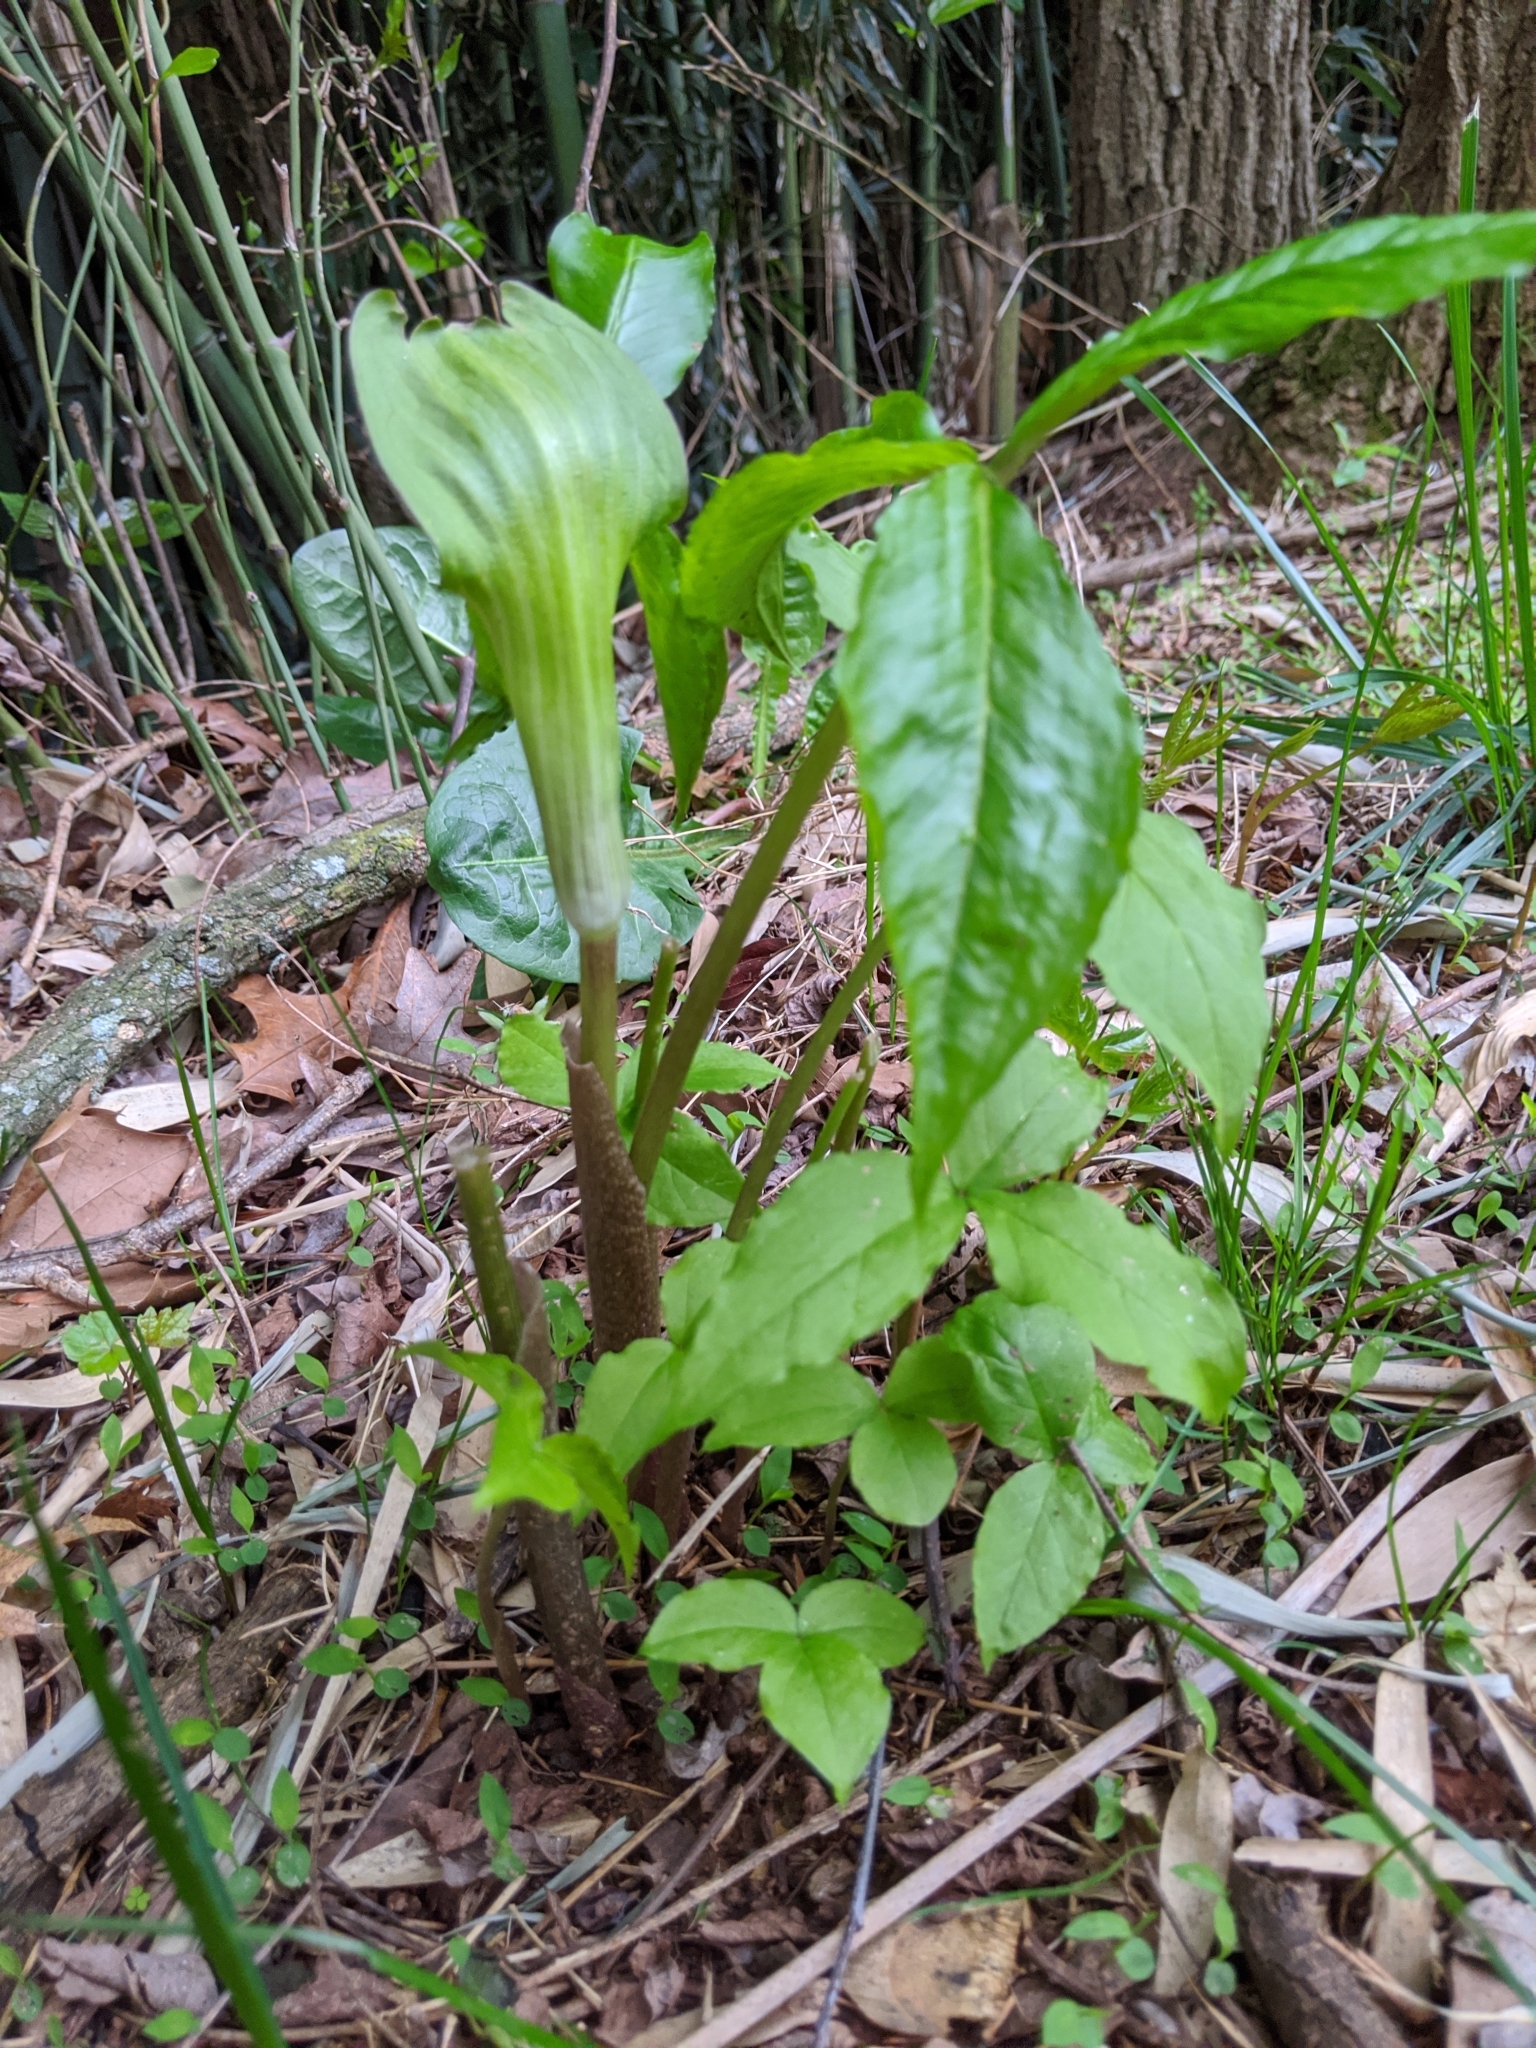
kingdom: Plantae
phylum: Tracheophyta
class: Liliopsida
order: Alismatales
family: Araceae
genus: Arisaema
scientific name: Arisaema triphyllum
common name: Jack-in-the-pulpit
